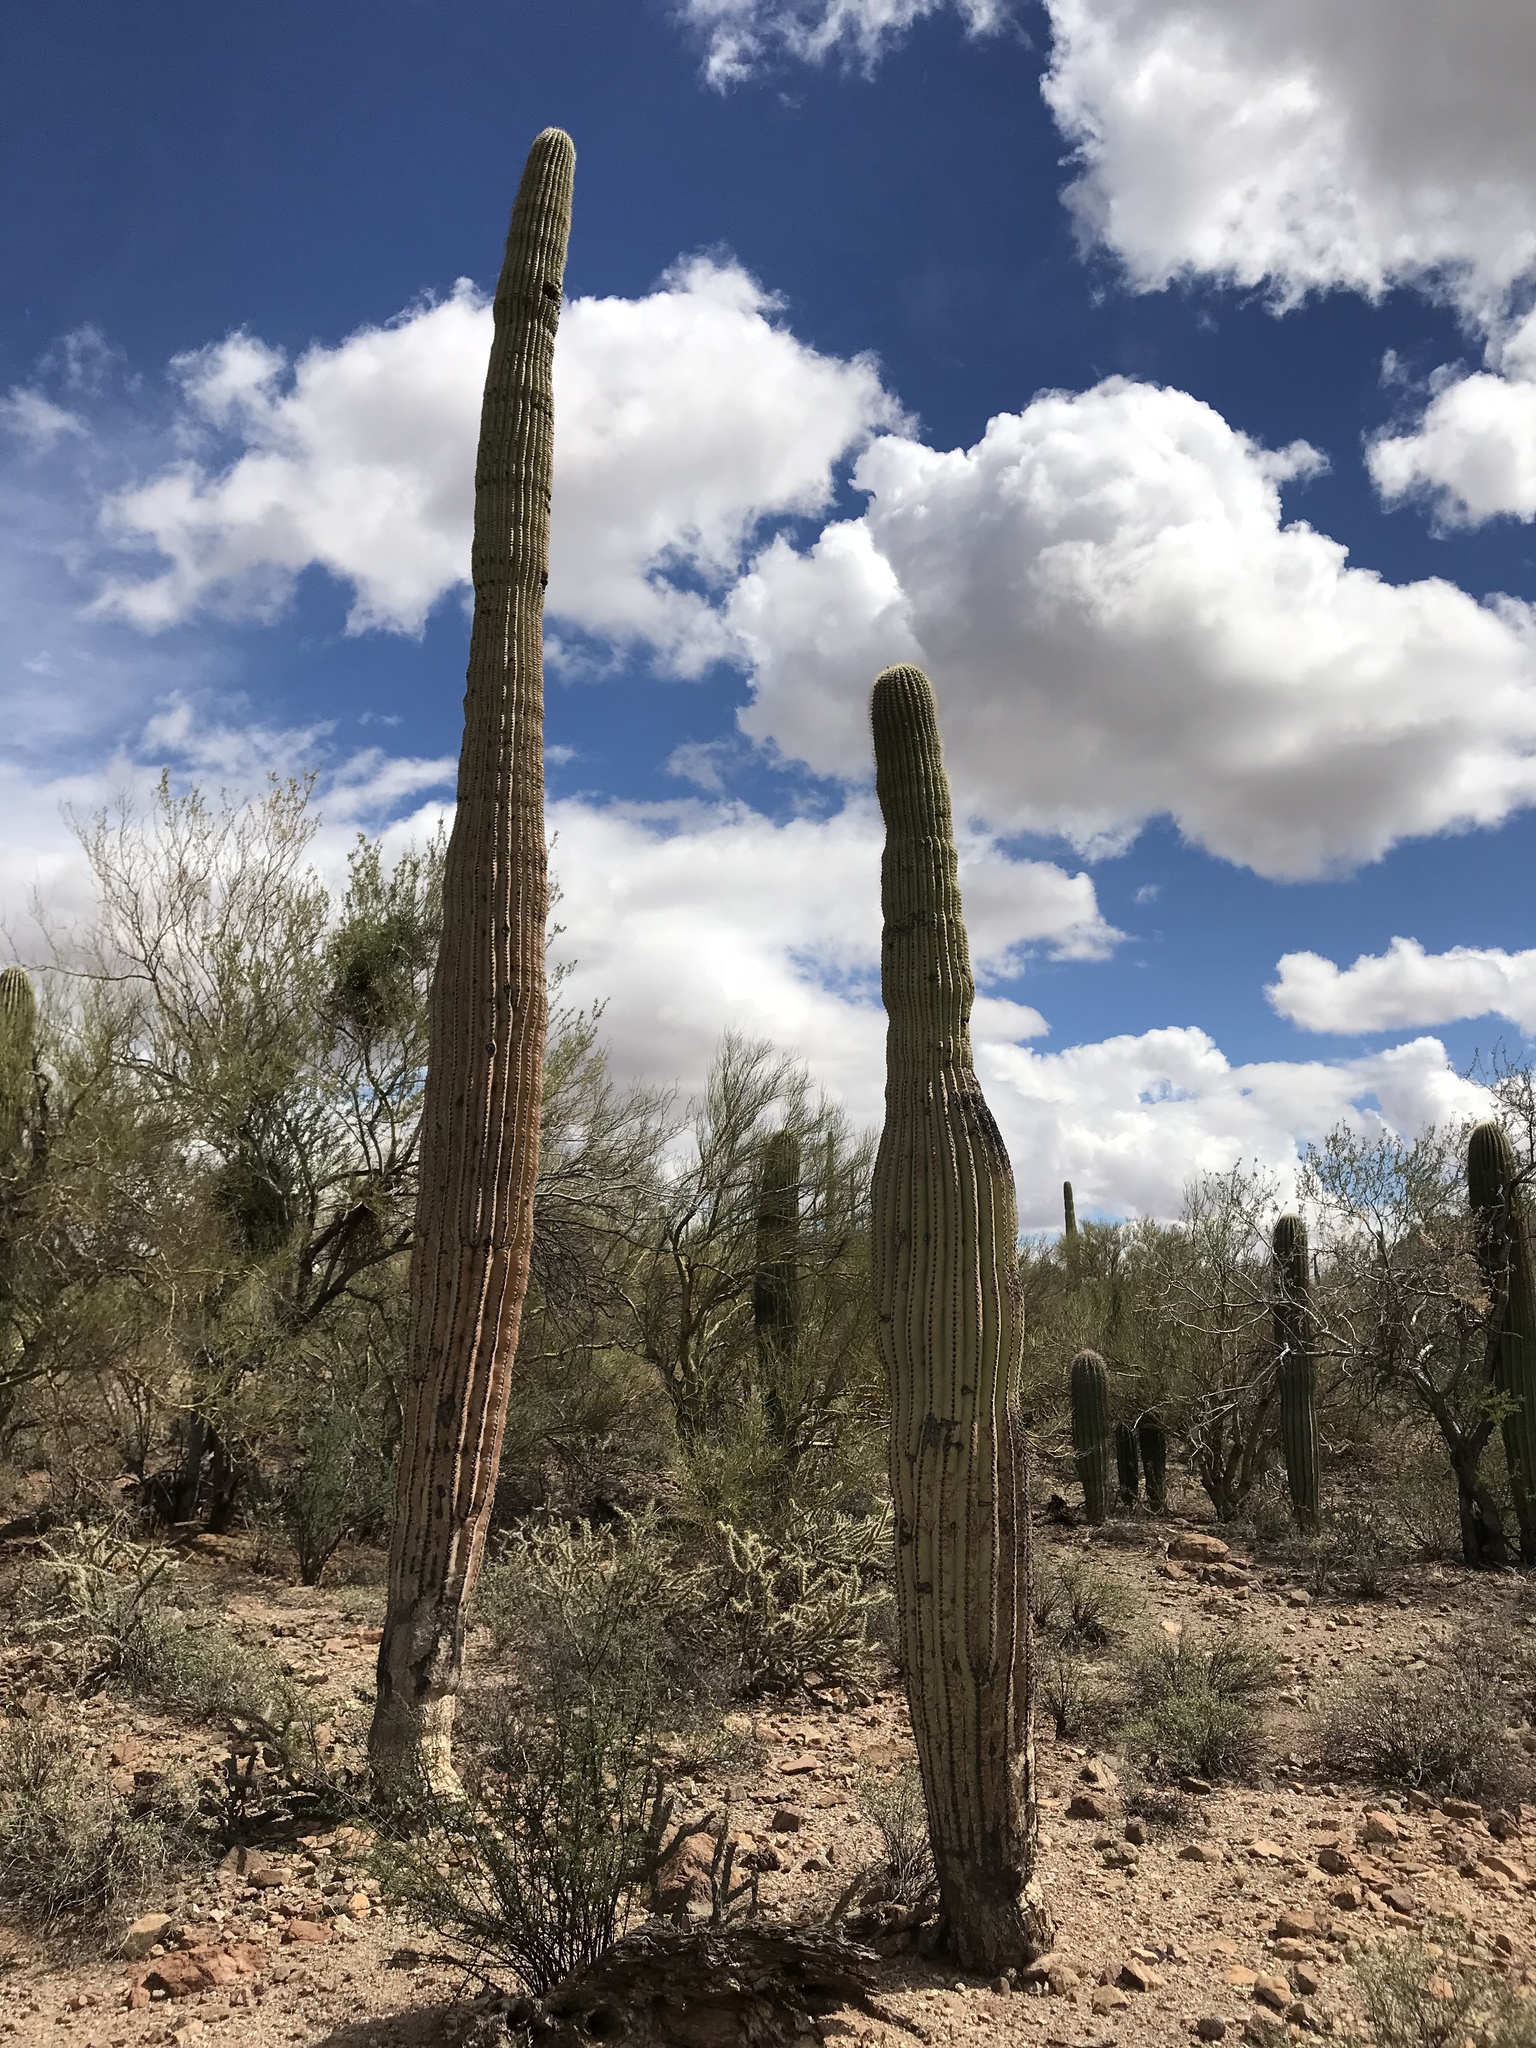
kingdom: Plantae
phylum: Tracheophyta
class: Magnoliopsida
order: Caryophyllales
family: Cactaceae
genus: Carnegiea
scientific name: Carnegiea gigantea
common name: Saguaro
